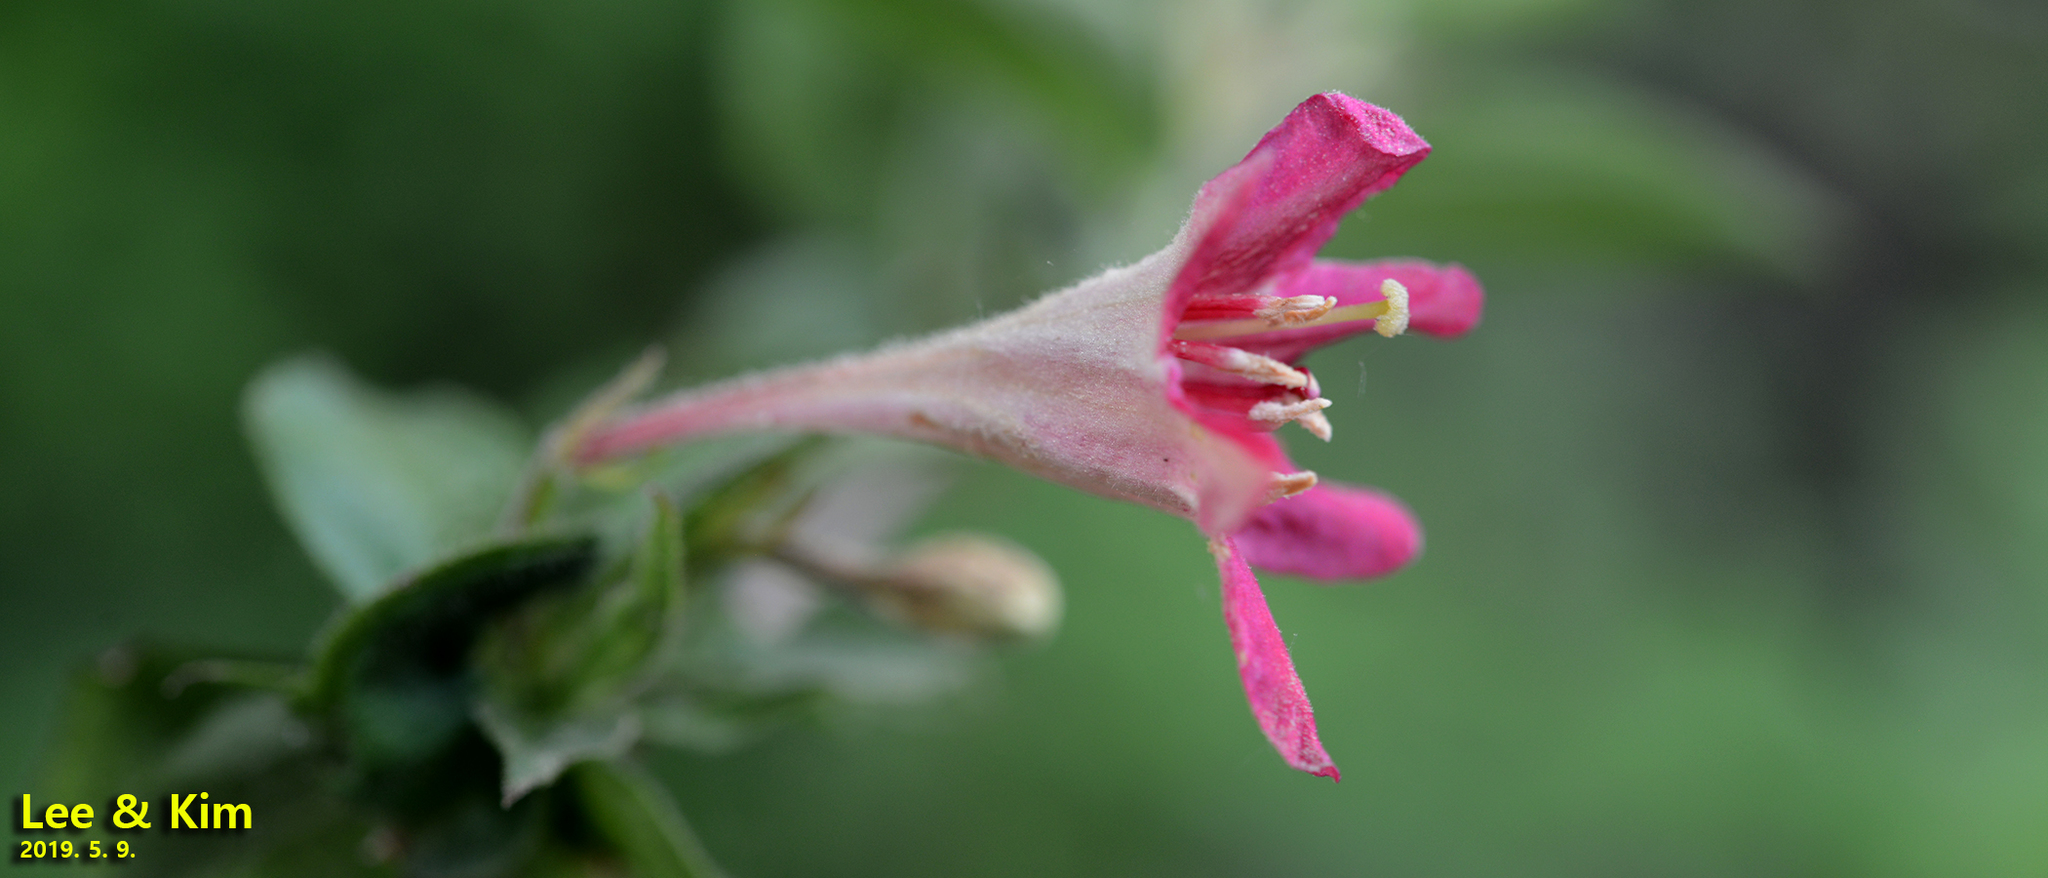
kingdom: Plantae
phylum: Tracheophyta
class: Magnoliopsida
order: Dipsacales
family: Caprifoliaceae
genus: Weigela
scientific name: Weigela subsessilis
